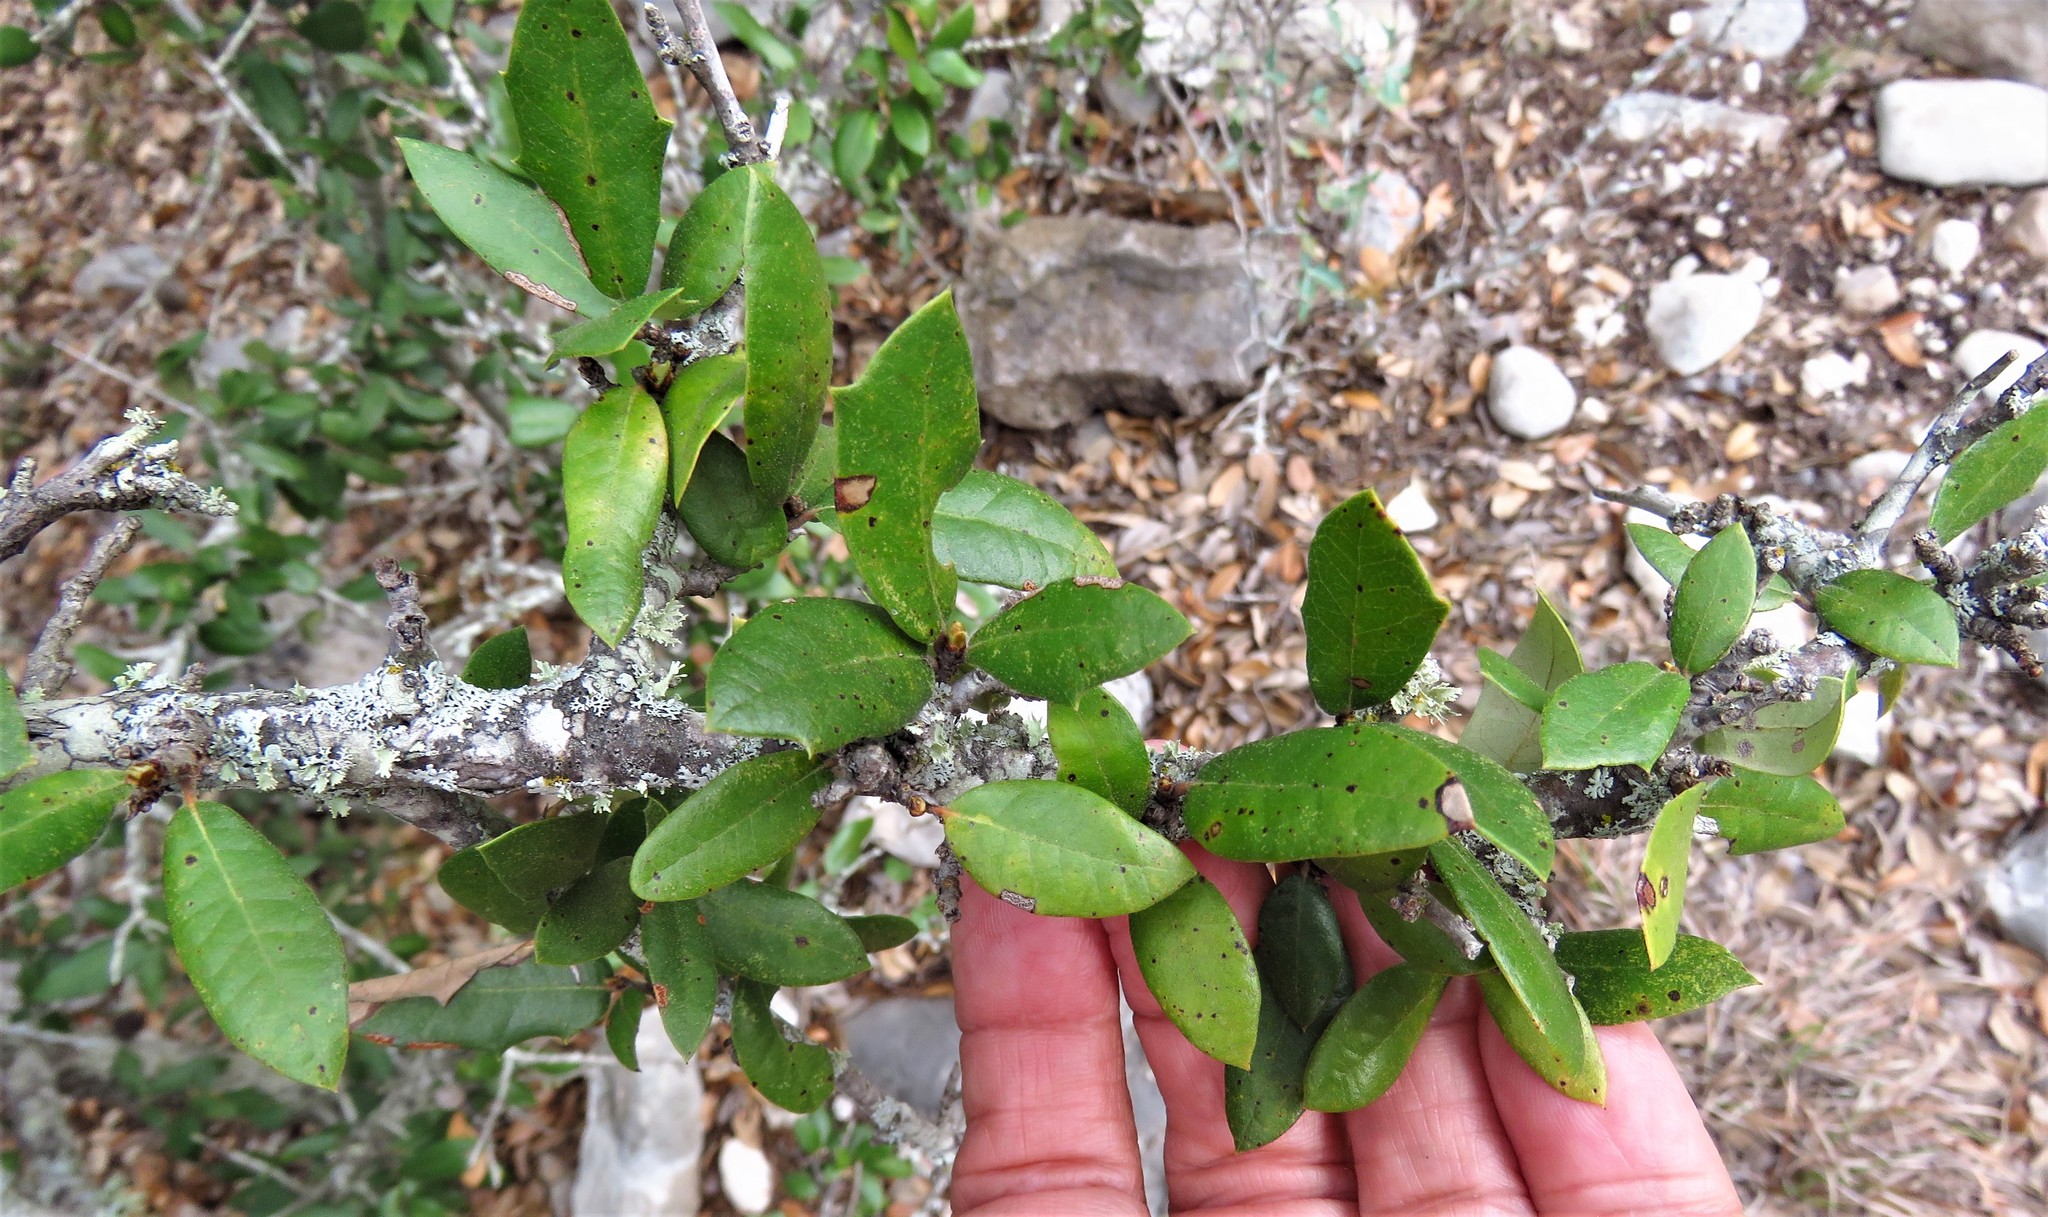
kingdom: Plantae
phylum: Tracheophyta
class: Magnoliopsida
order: Fagales
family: Fagaceae
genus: Quercus
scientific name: Quercus fusiformis
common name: Texas live oak
